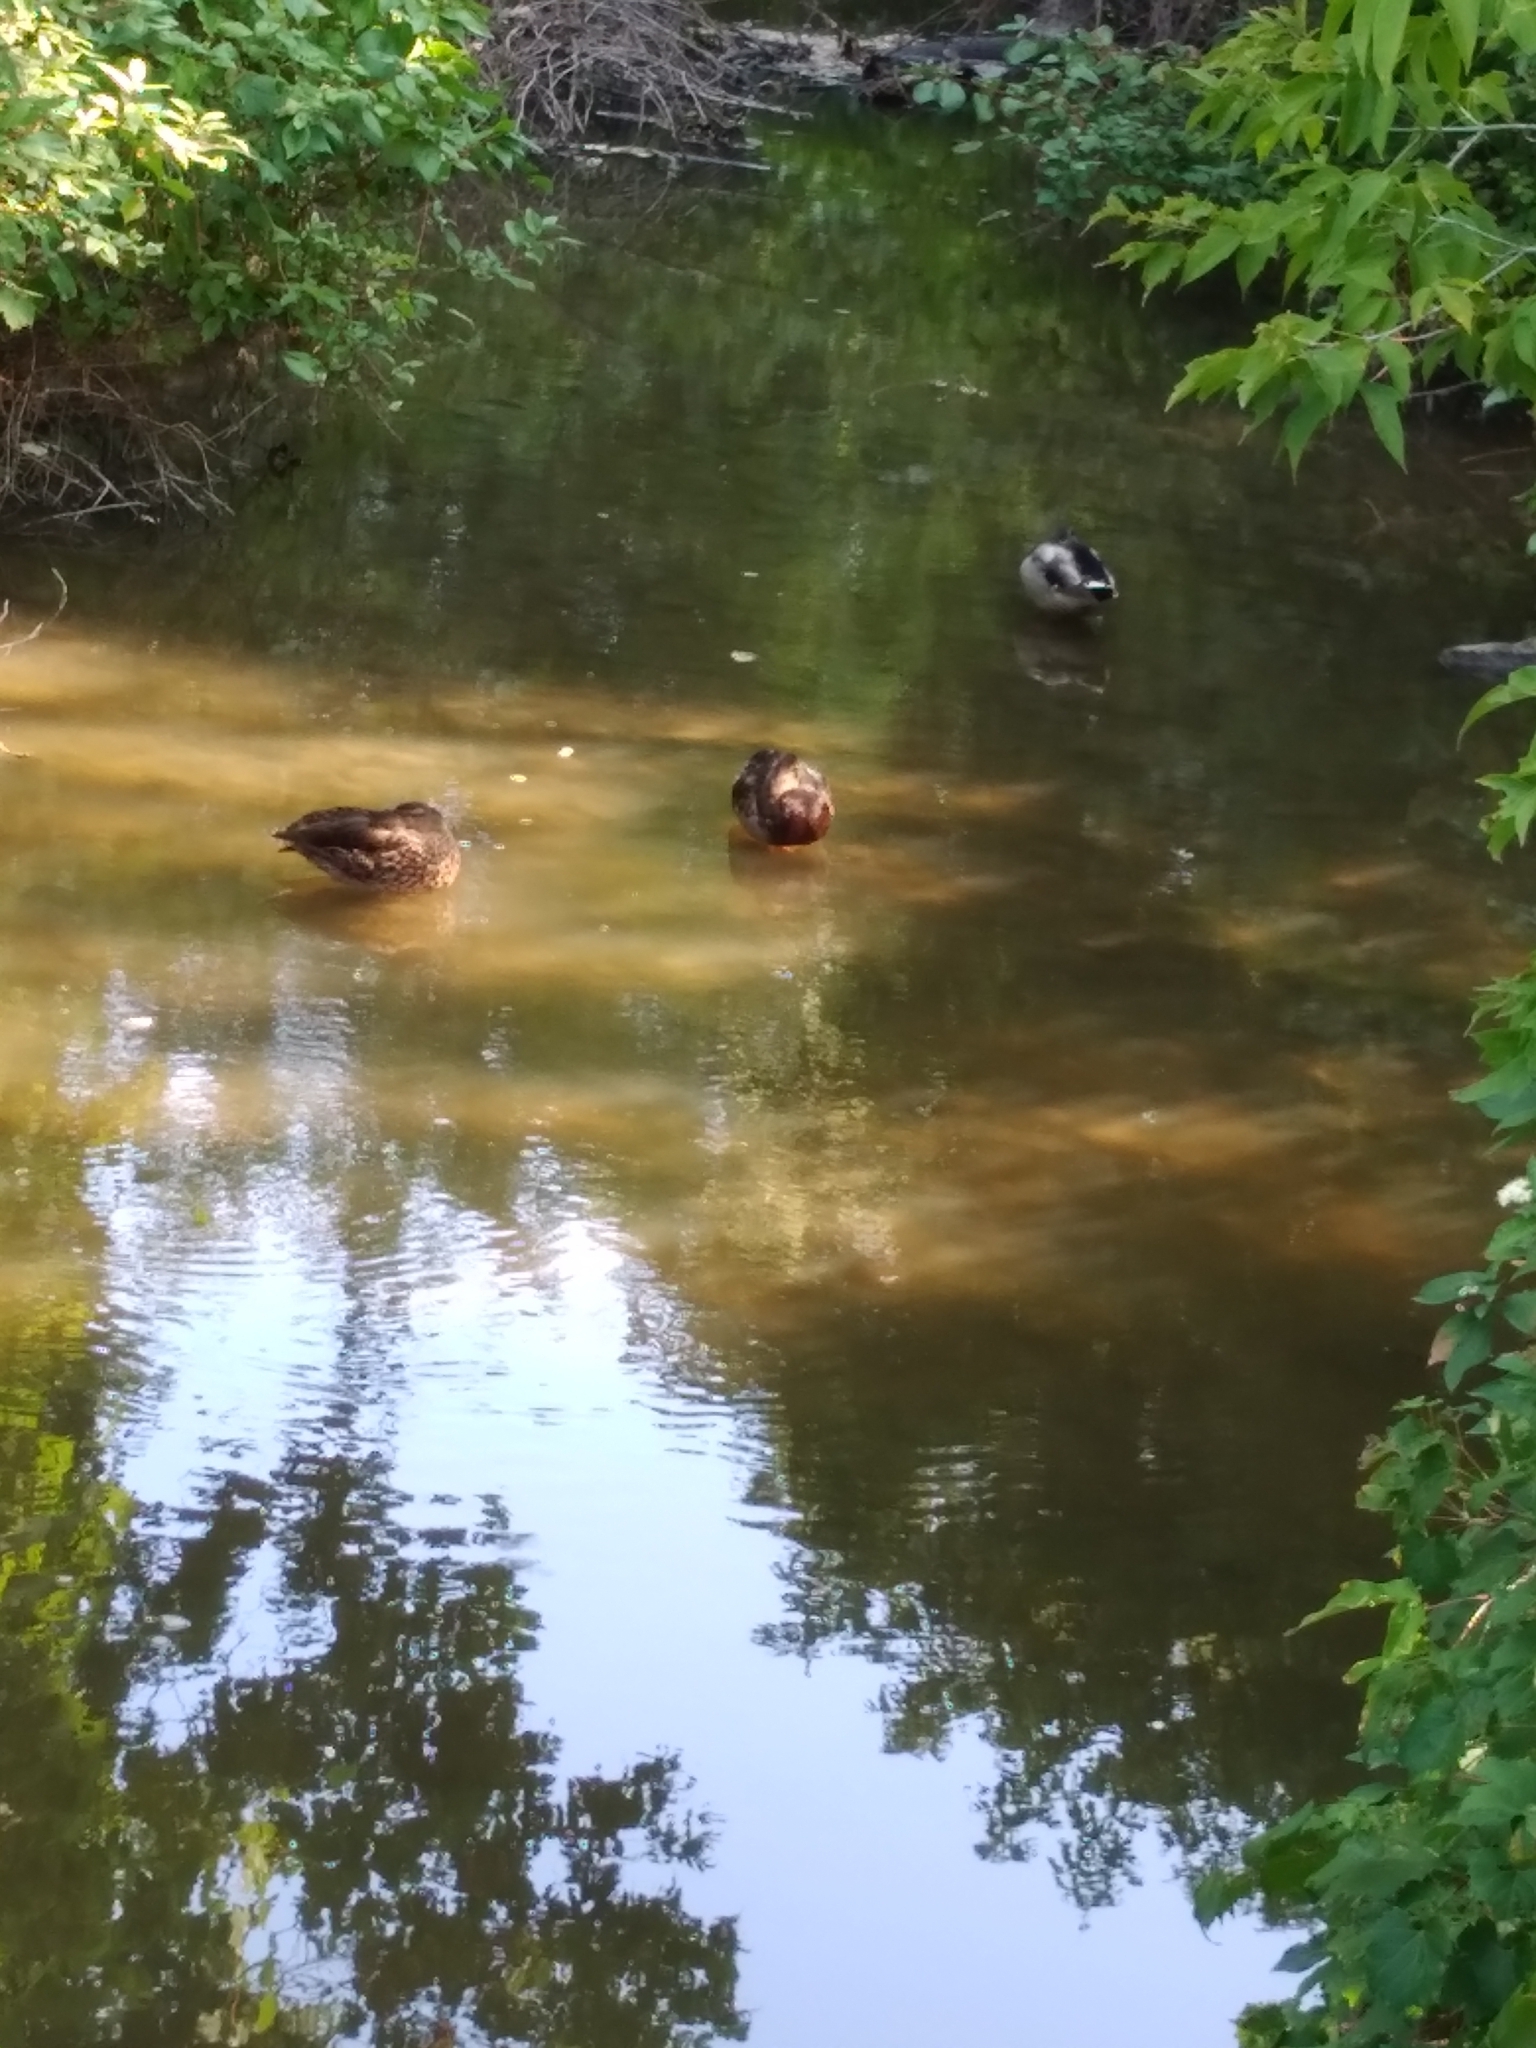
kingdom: Animalia
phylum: Chordata
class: Aves
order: Anseriformes
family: Anatidae
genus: Anas
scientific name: Anas platyrhynchos
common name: Mallard
